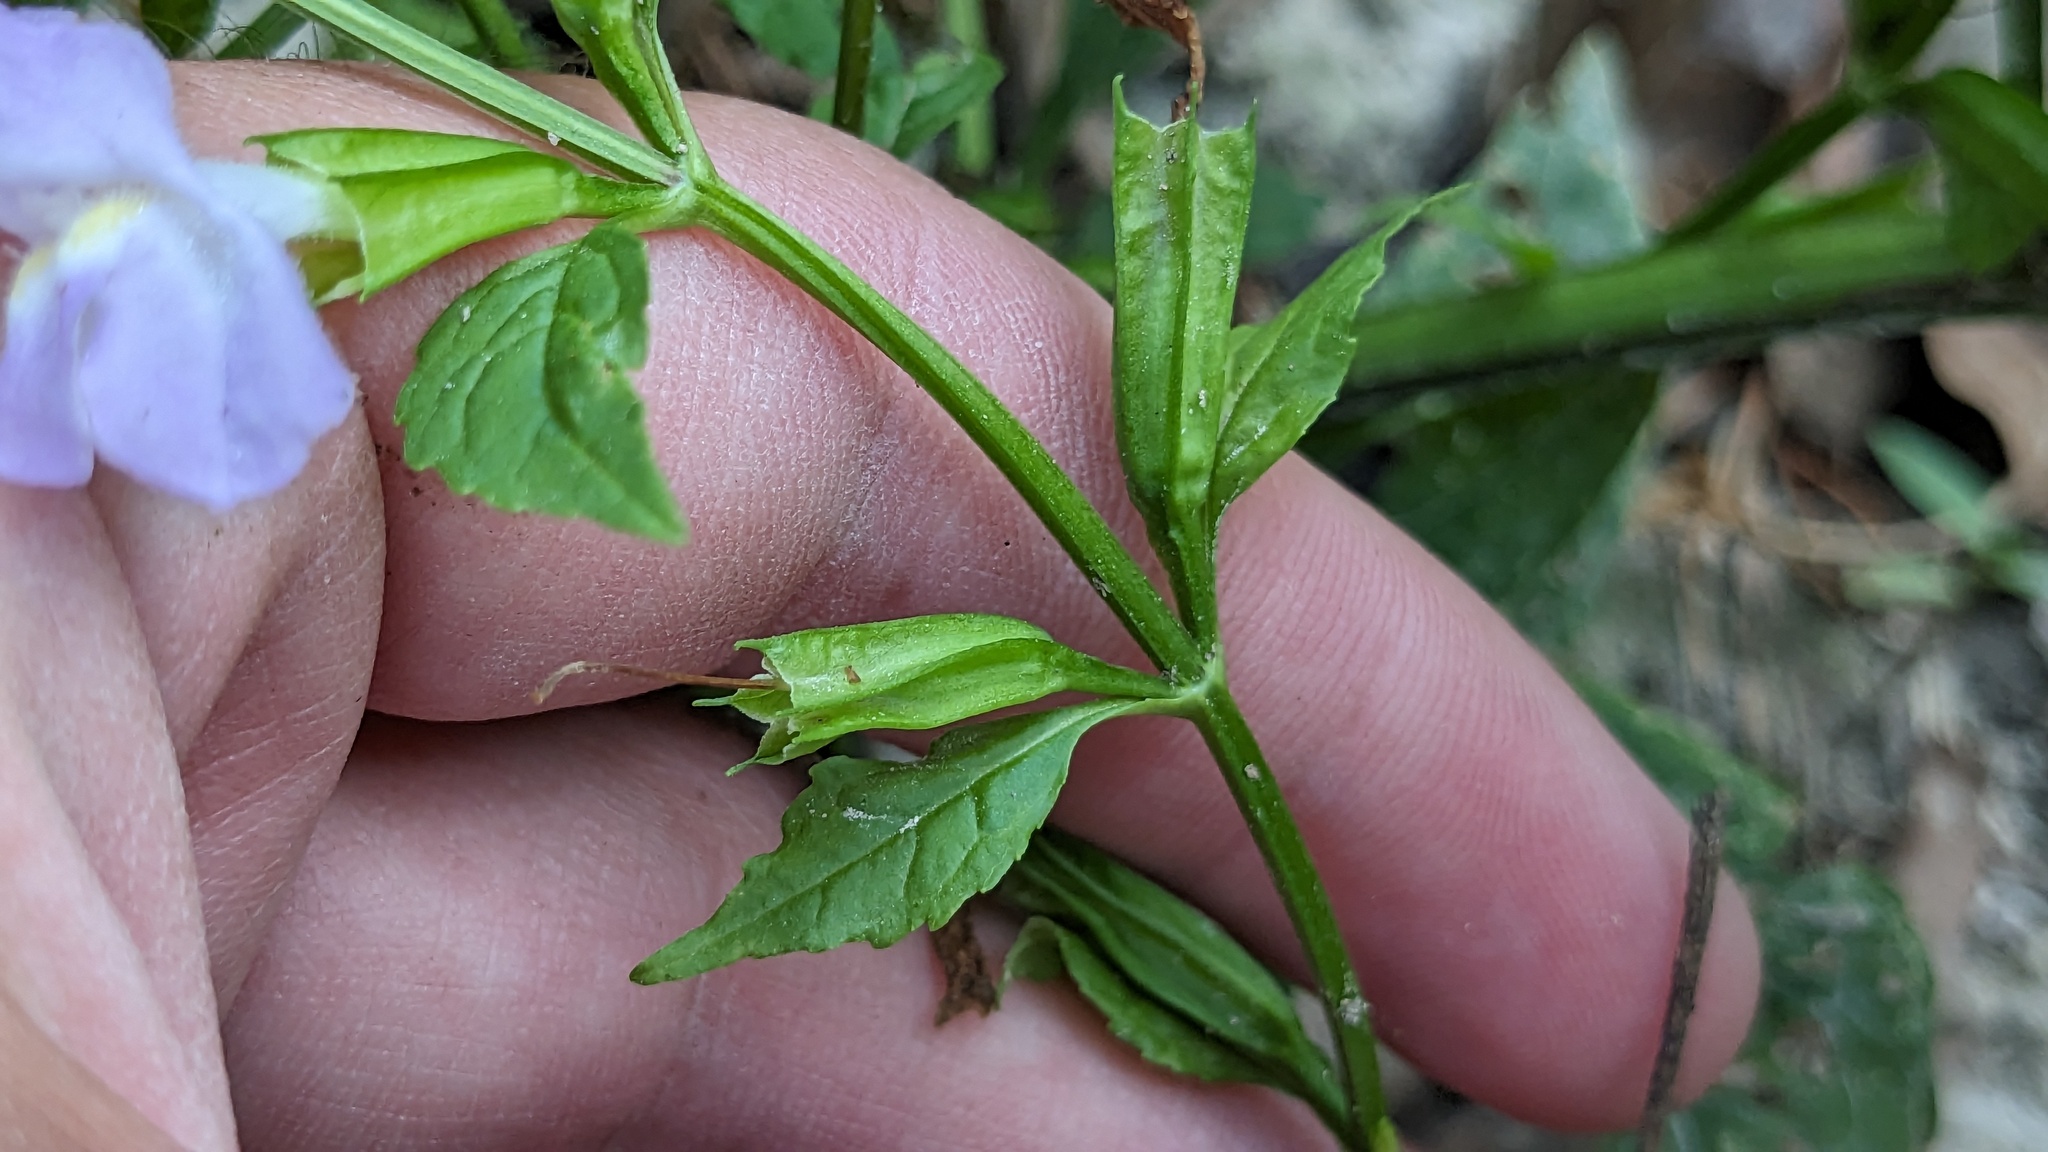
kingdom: Plantae
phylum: Tracheophyta
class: Magnoliopsida
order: Lamiales
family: Phrymaceae
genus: Mimulus
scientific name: Mimulus alatus
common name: Sharp-wing monkey-flower
